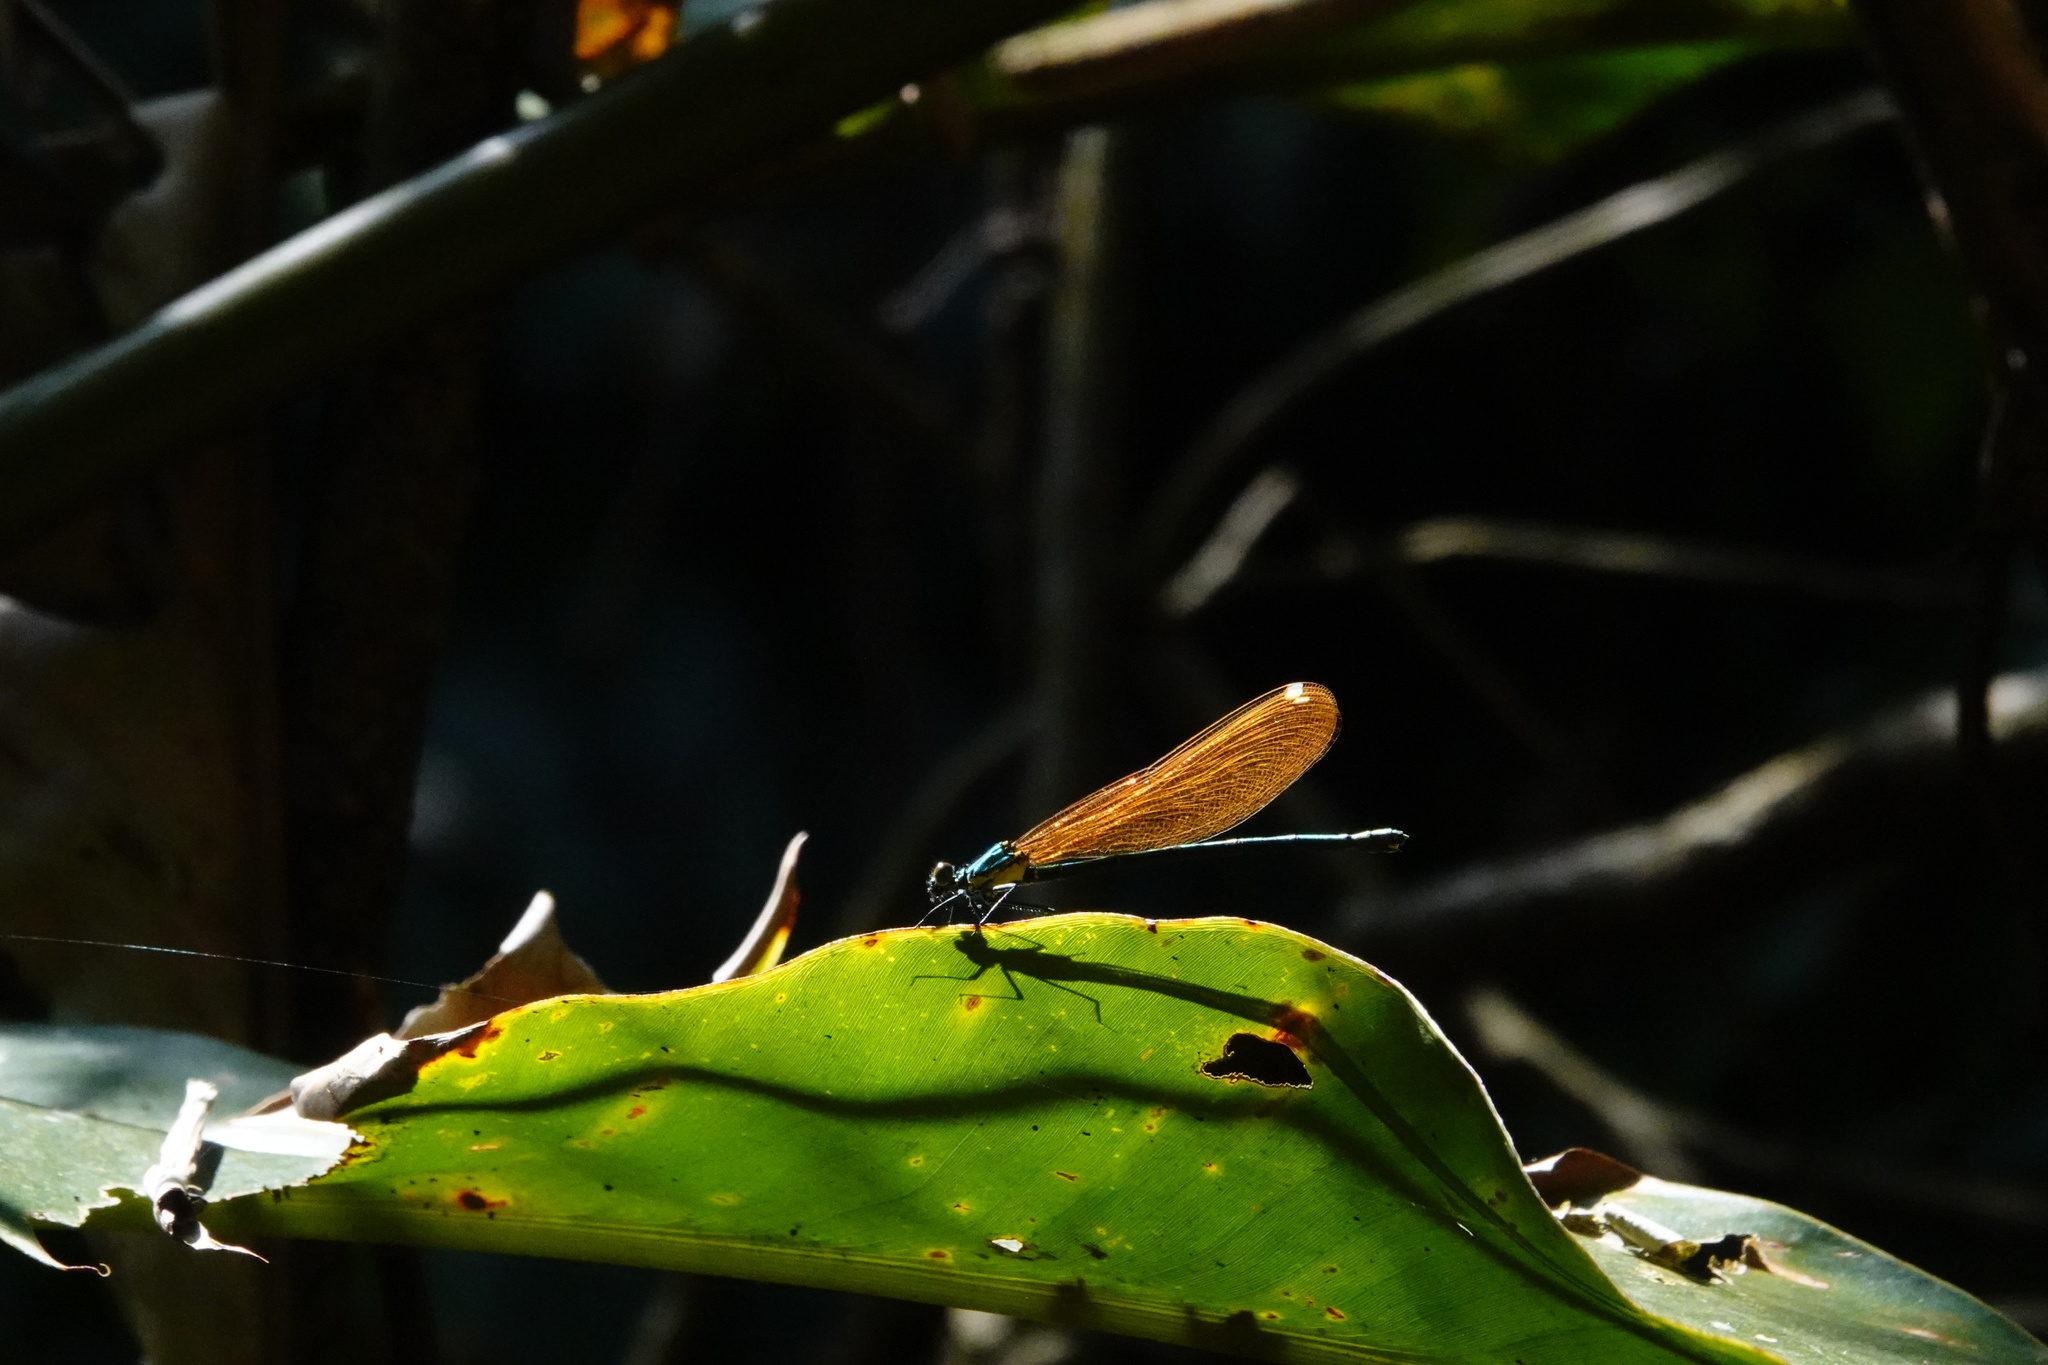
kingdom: Animalia
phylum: Arthropoda
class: Insecta
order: Odonata
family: Calopterygidae
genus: Mnais
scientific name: Mnais tenuis
